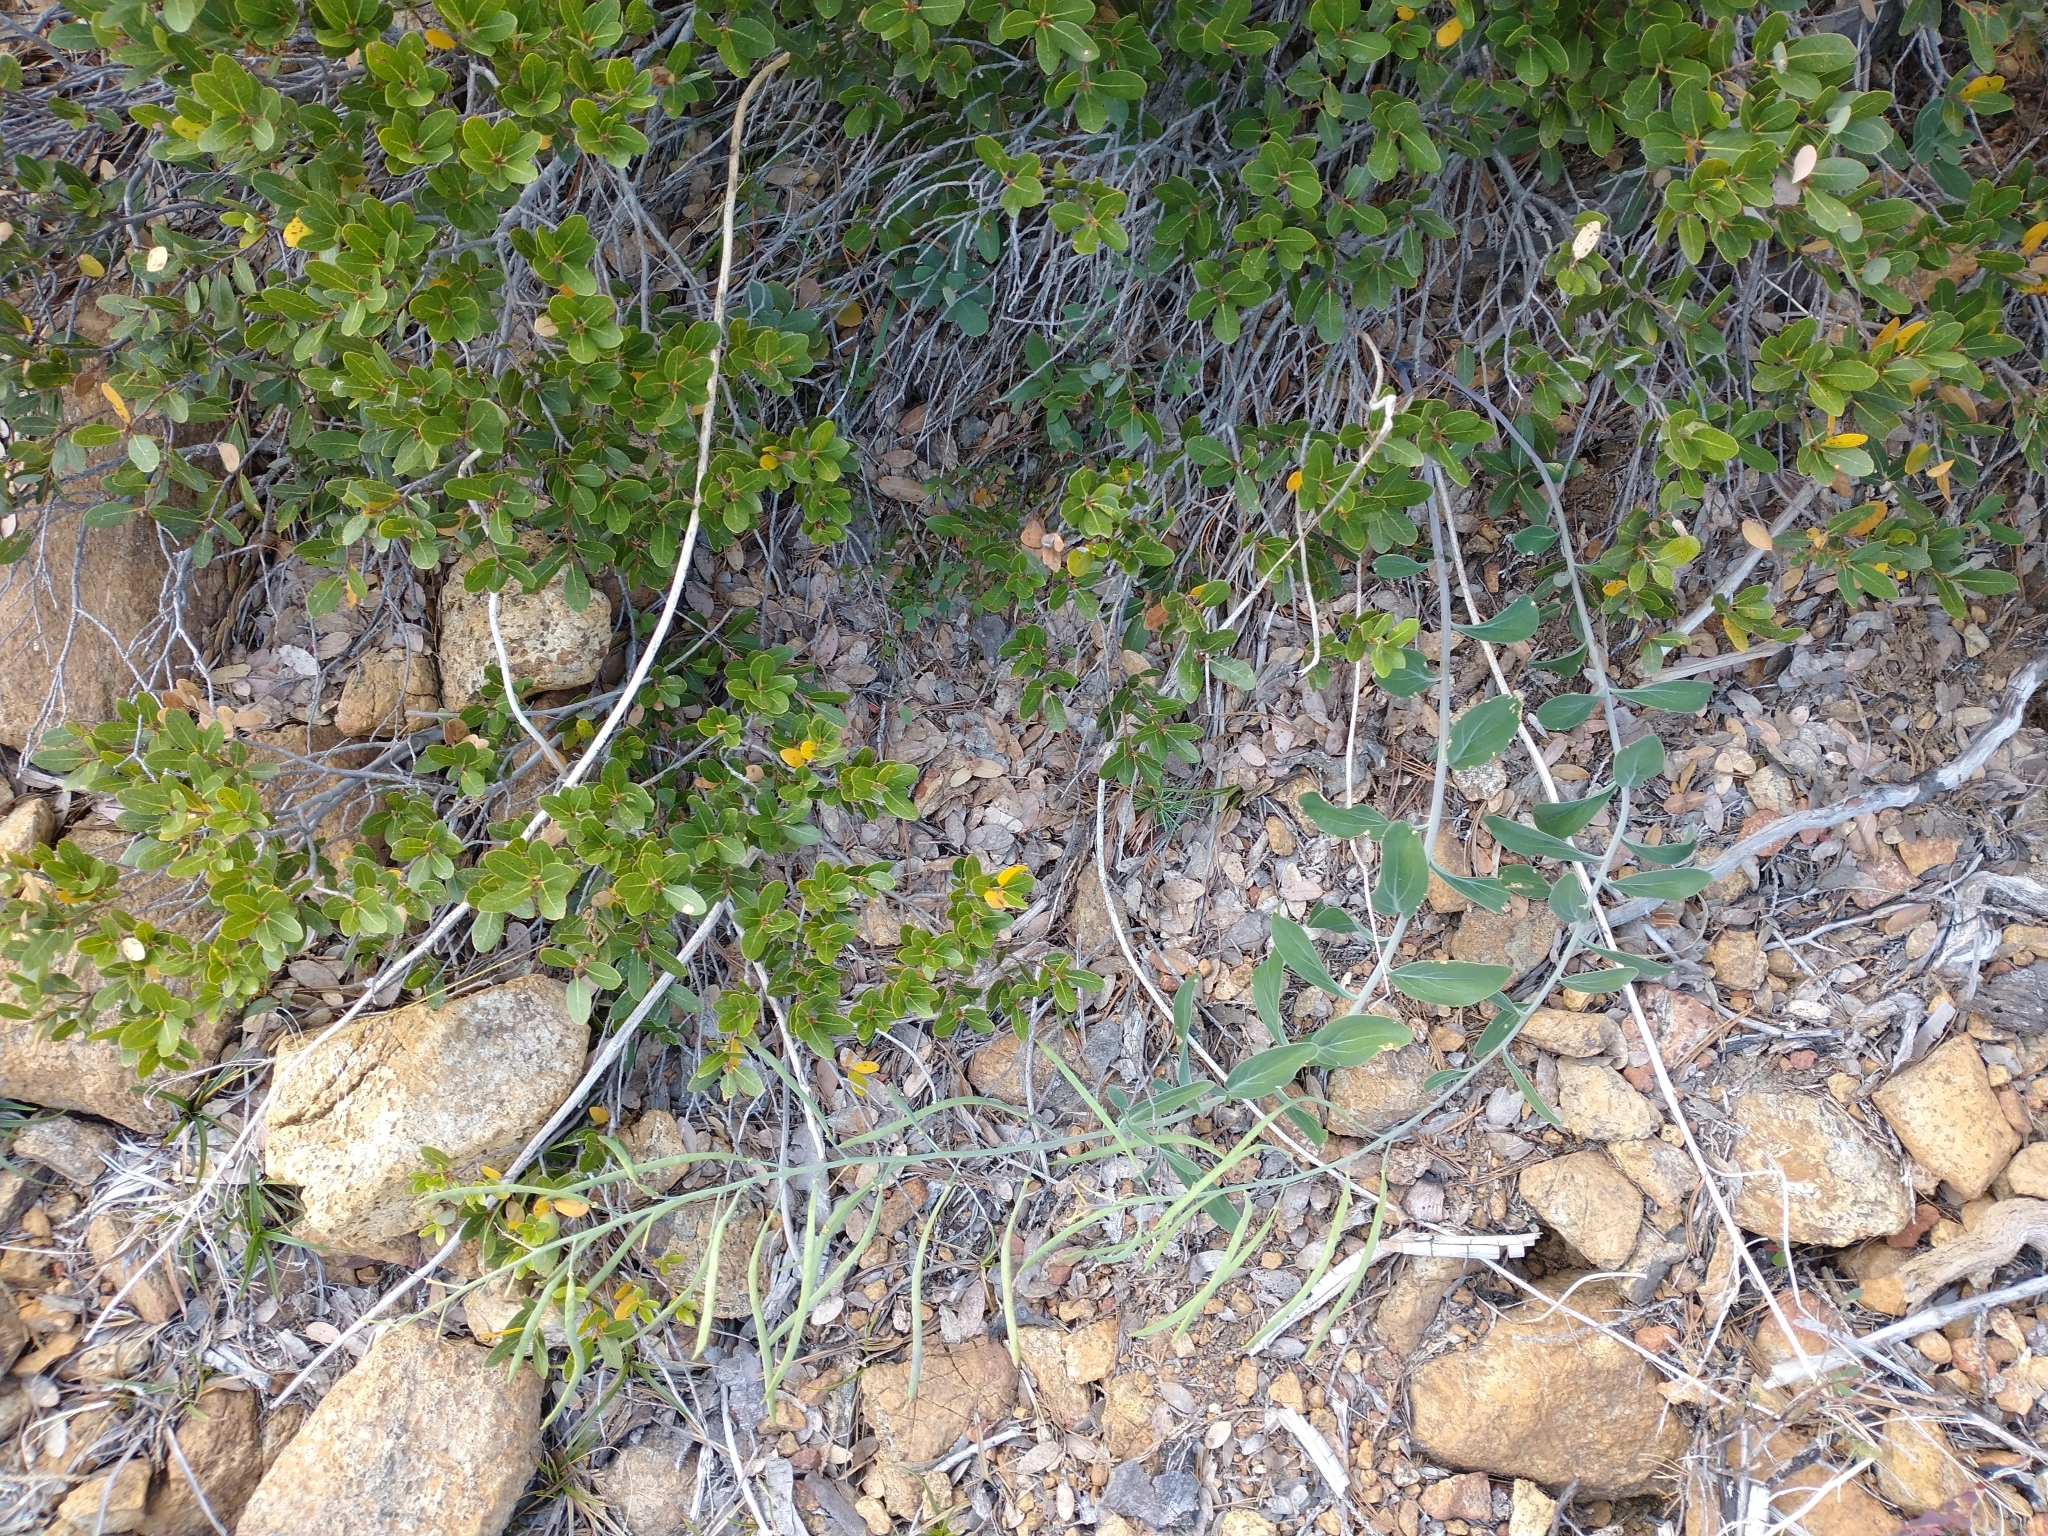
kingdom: Plantae
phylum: Tracheophyta
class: Magnoliopsida
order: Fagales
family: Fagaceae
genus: Quercus
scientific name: Quercus vacciniifolia
